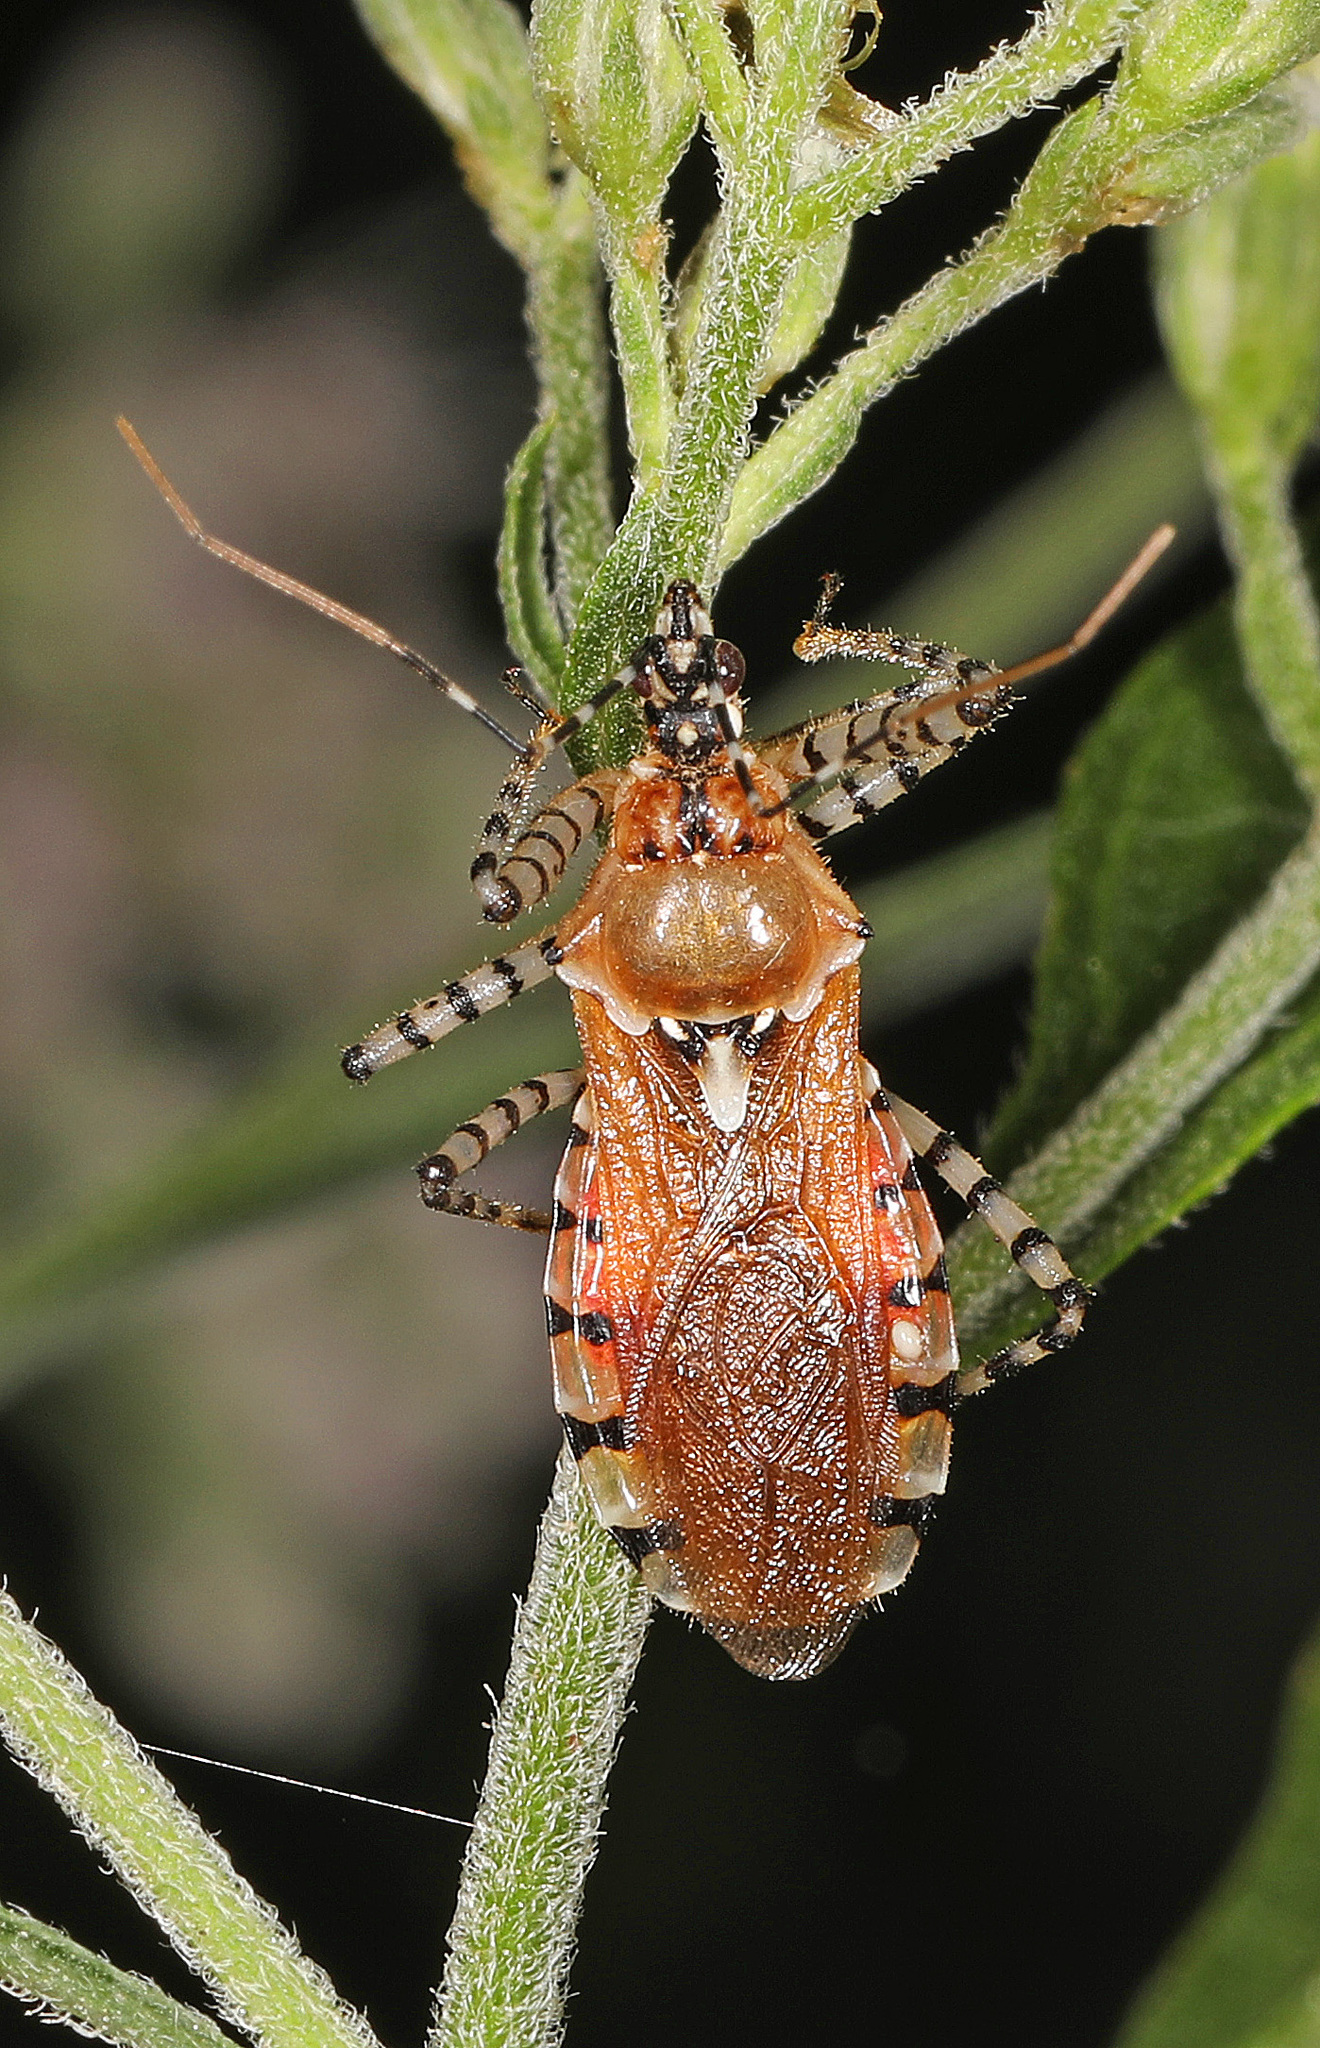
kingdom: Animalia
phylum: Arthropoda
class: Insecta
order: Hemiptera
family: Reduviidae
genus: Pselliopus
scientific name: Pselliopus cinctus
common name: Ringed assassin bug
